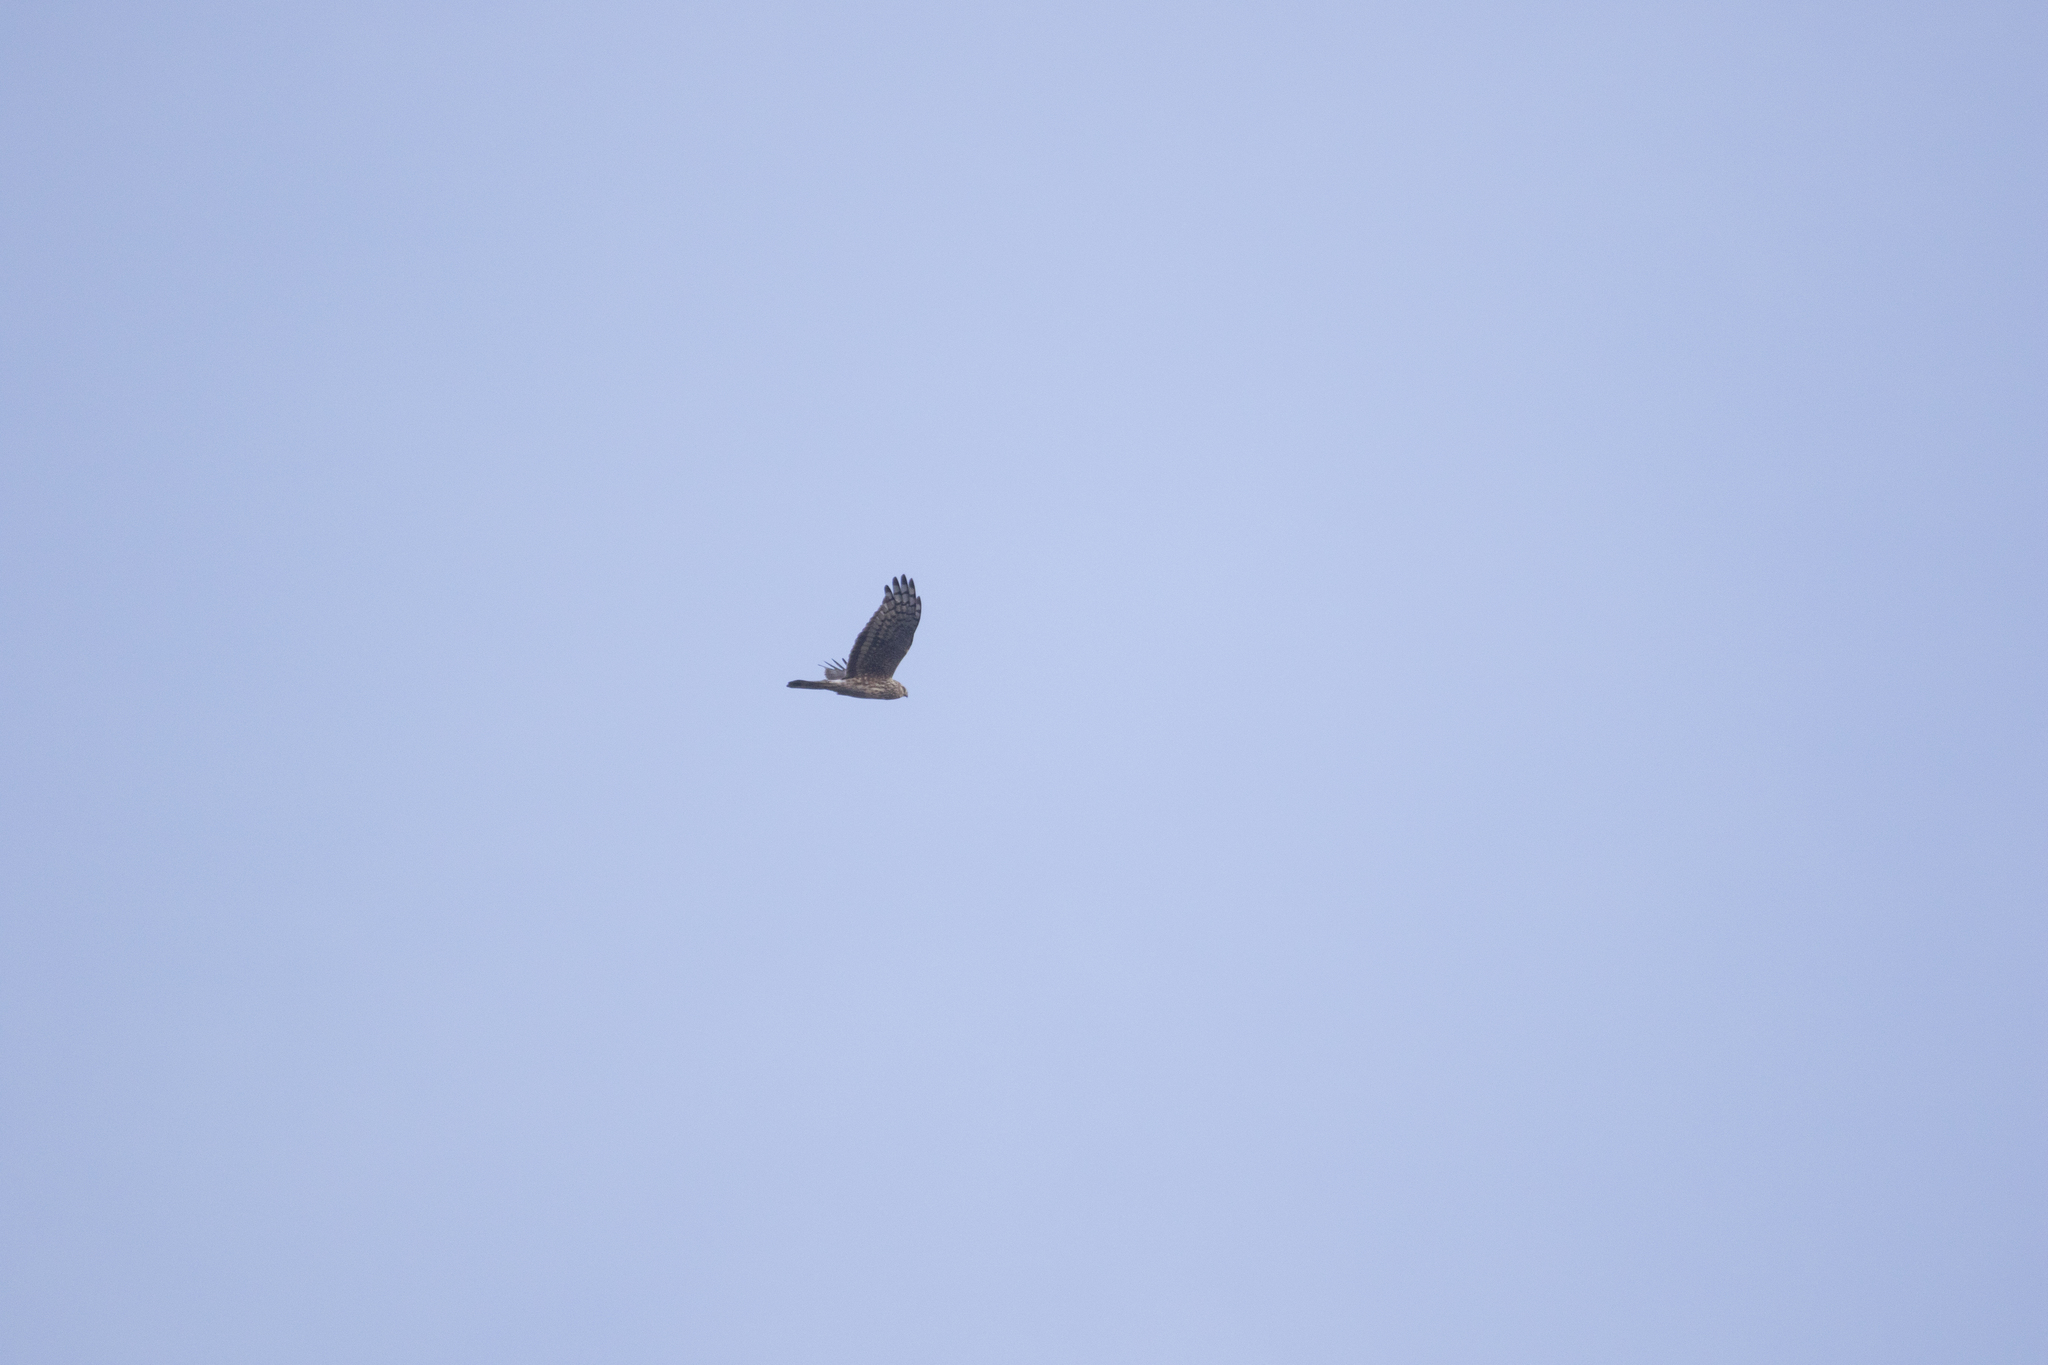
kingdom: Animalia
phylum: Chordata
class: Aves
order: Accipitriformes
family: Accipitridae
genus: Circus
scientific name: Circus cyaneus
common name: Hen harrier
